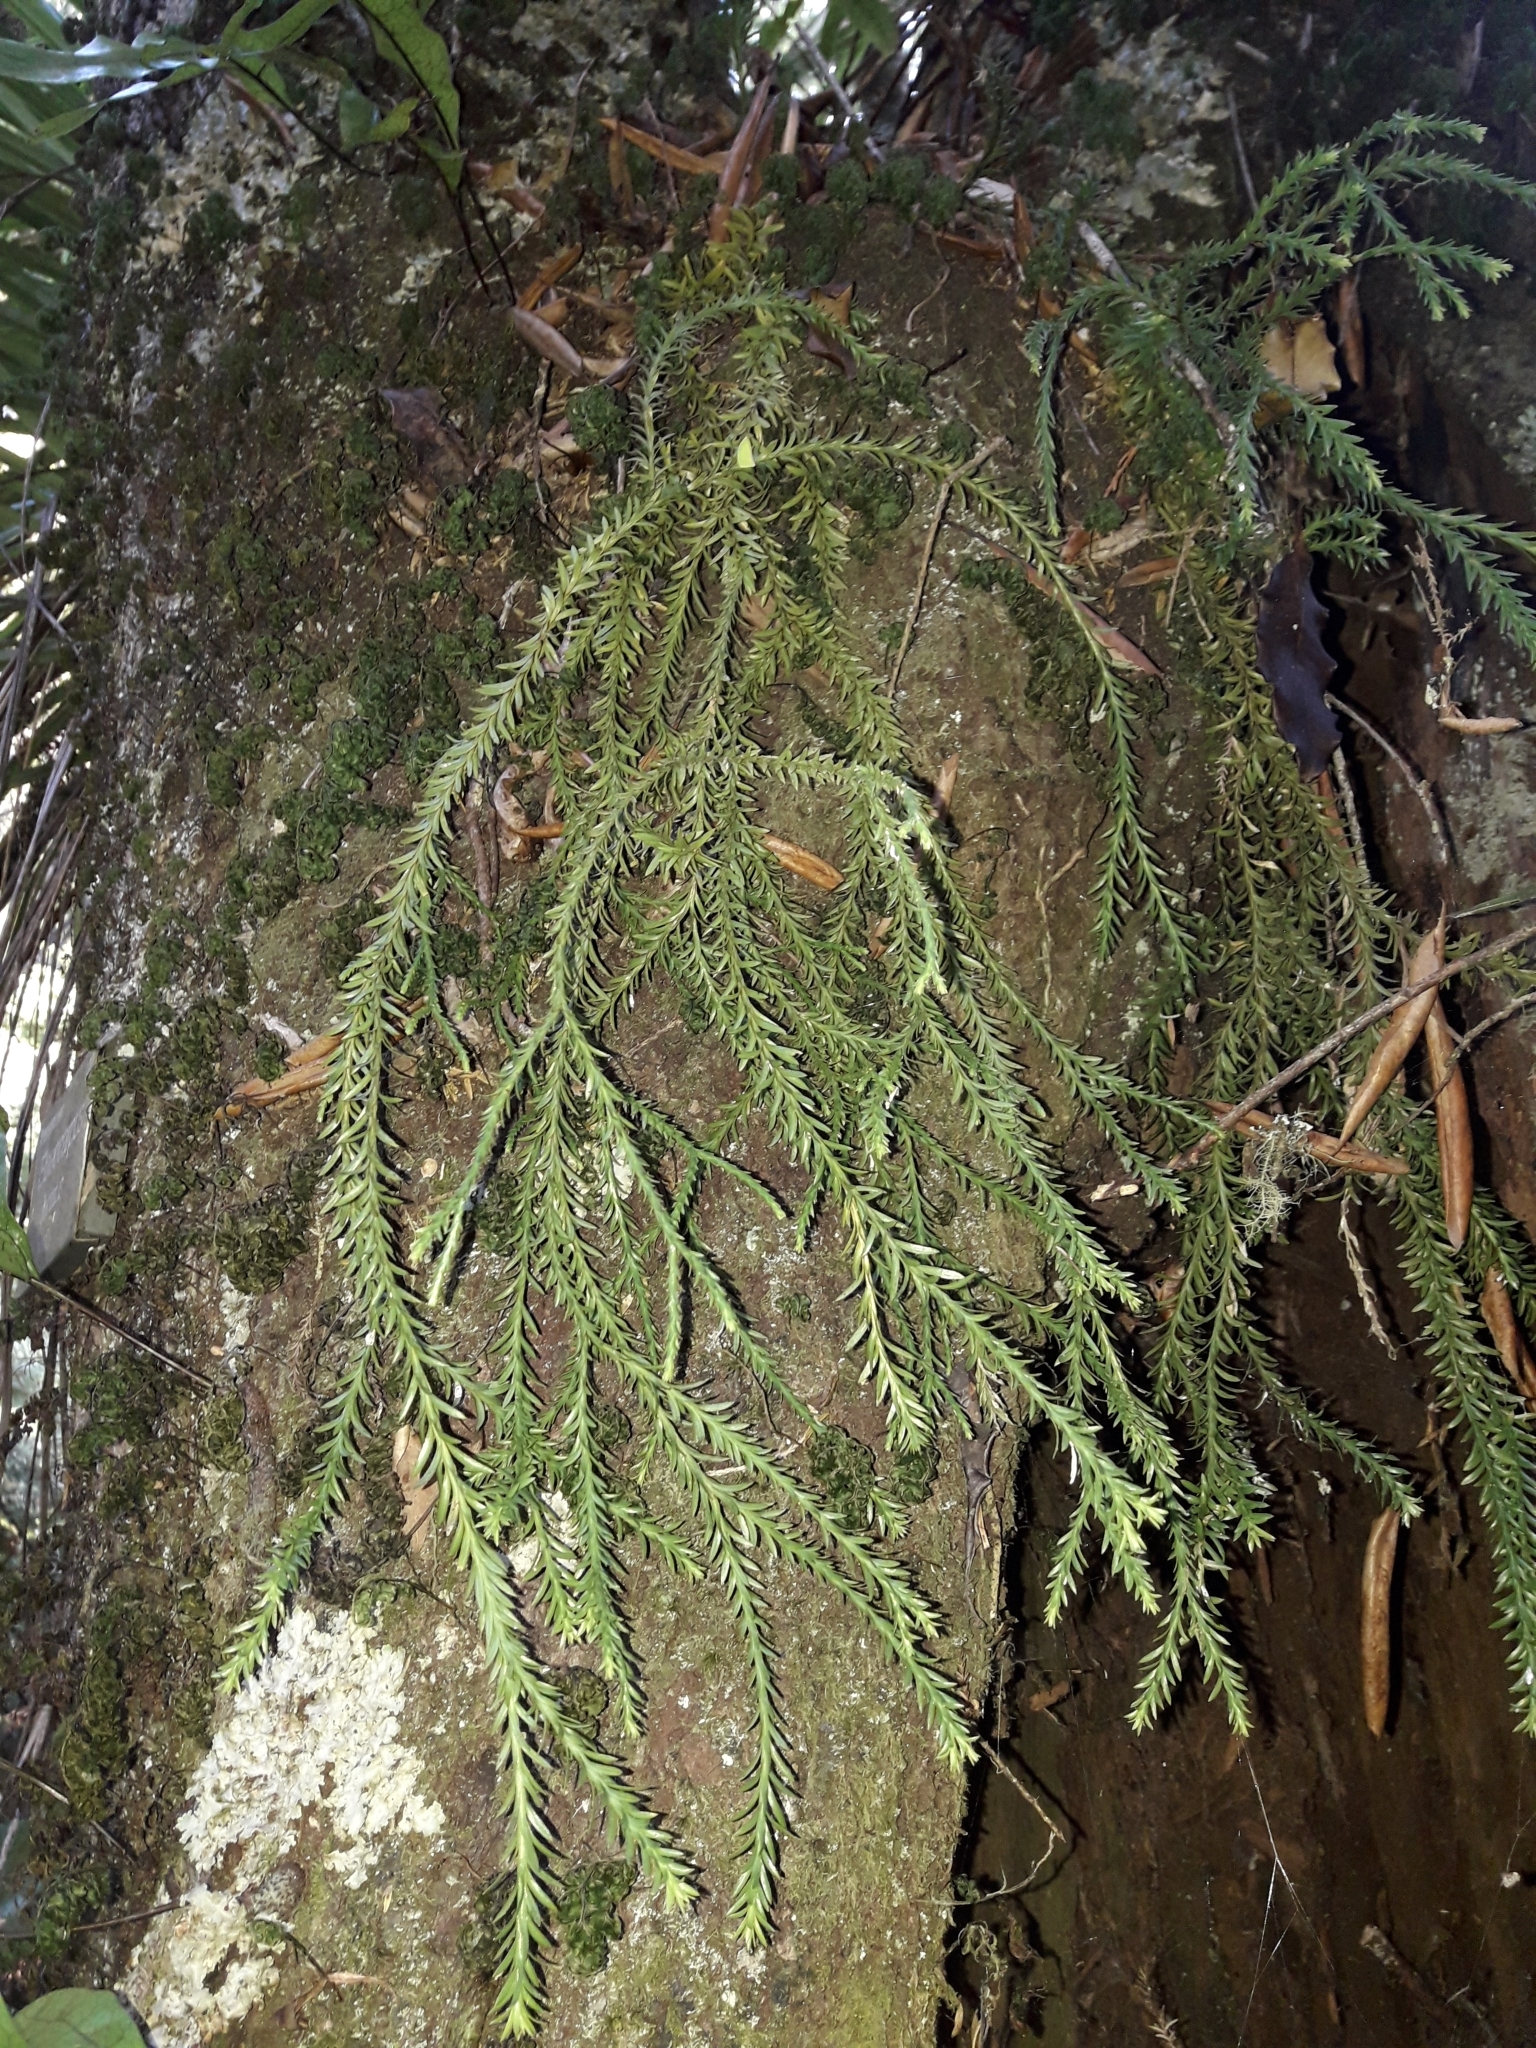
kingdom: Plantae
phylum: Tracheophyta
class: Lycopodiopsida
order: Lycopodiales
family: Lycopodiaceae
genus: Phlegmariurus
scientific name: Phlegmariurus billardierei
